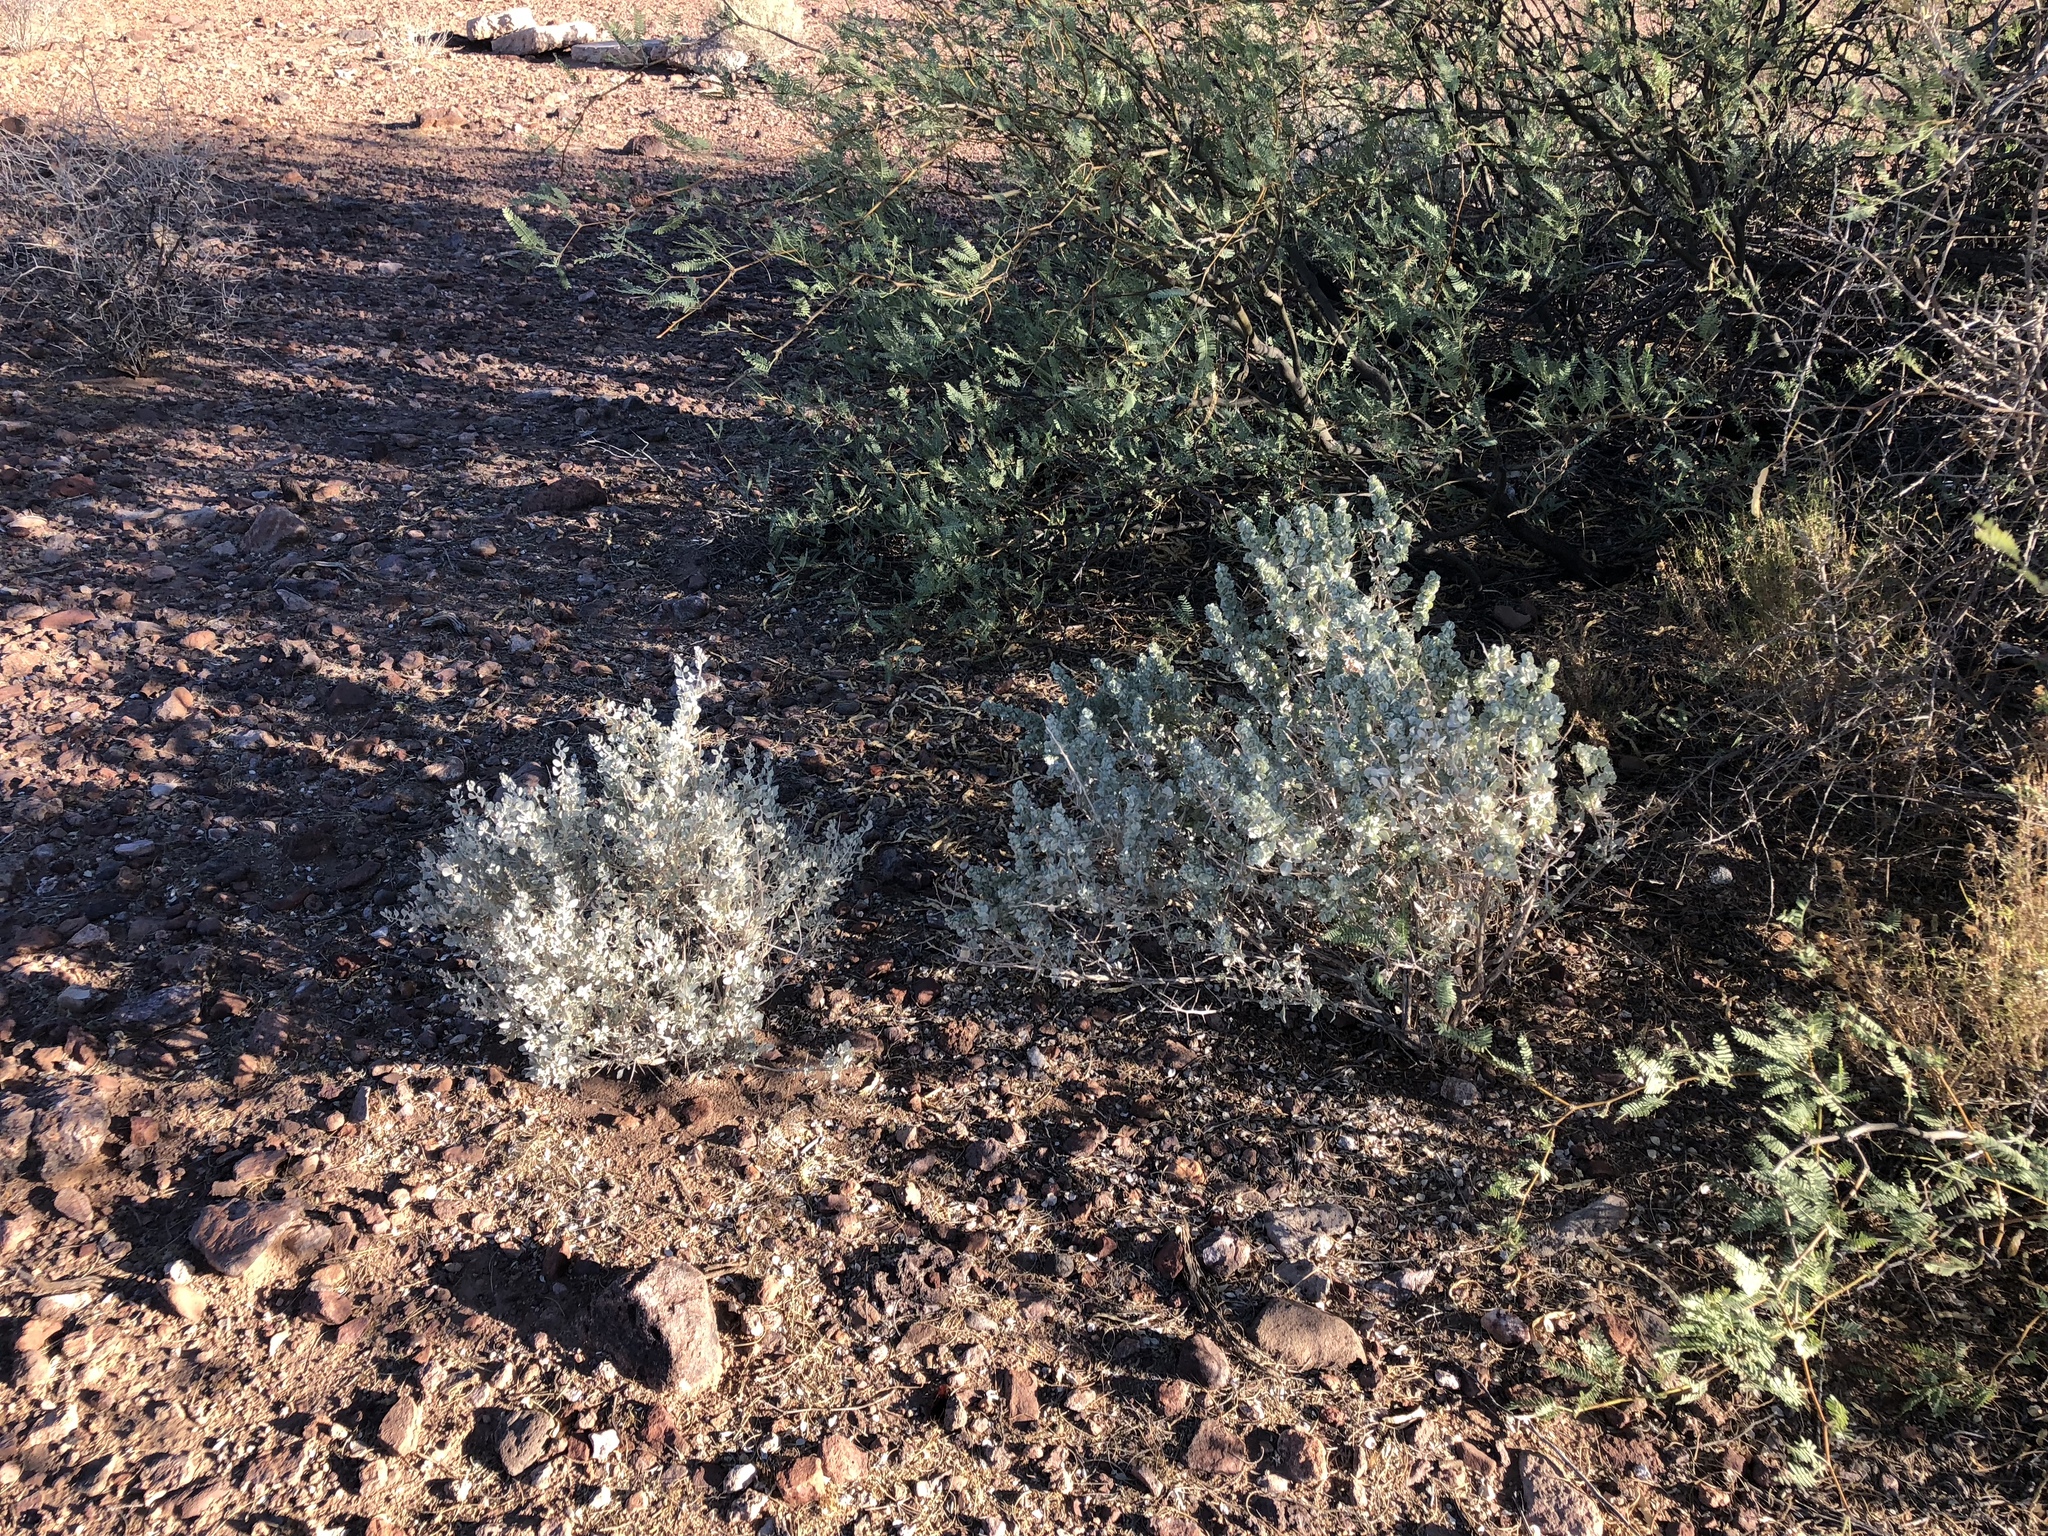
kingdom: Plantae
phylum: Tracheophyta
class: Magnoliopsida
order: Lamiales
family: Scrophulariaceae
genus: Leucophyllum
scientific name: Leucophyllum frutescens
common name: Texas silverleaf
